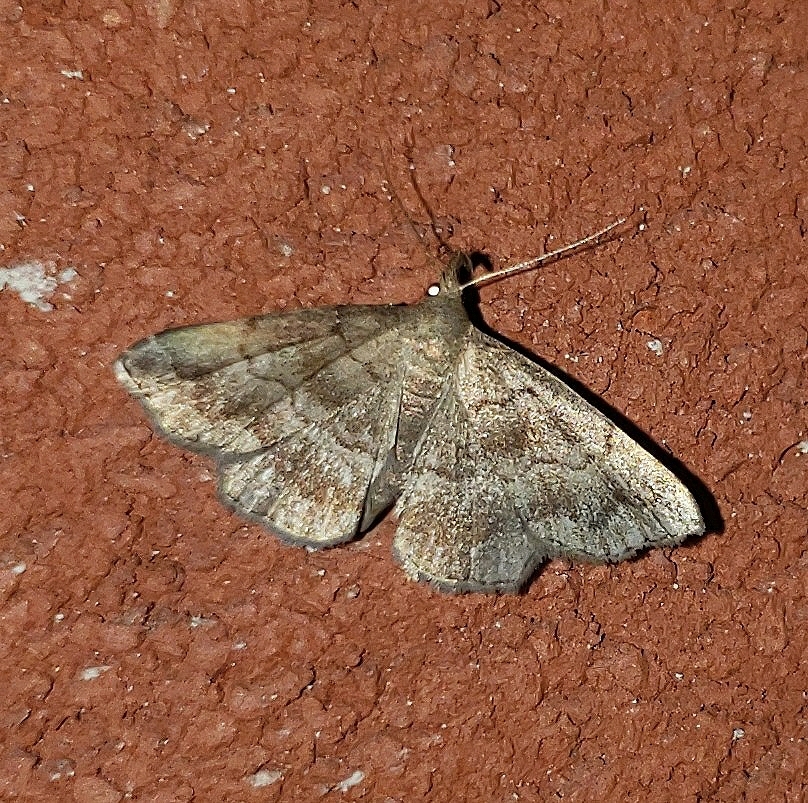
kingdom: Animalia
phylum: Arthropoda
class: Insecta
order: Lepidoptera
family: Erebidae
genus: Phalaenostola
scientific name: Phalaenostola larentioides
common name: Black-banded owlet
